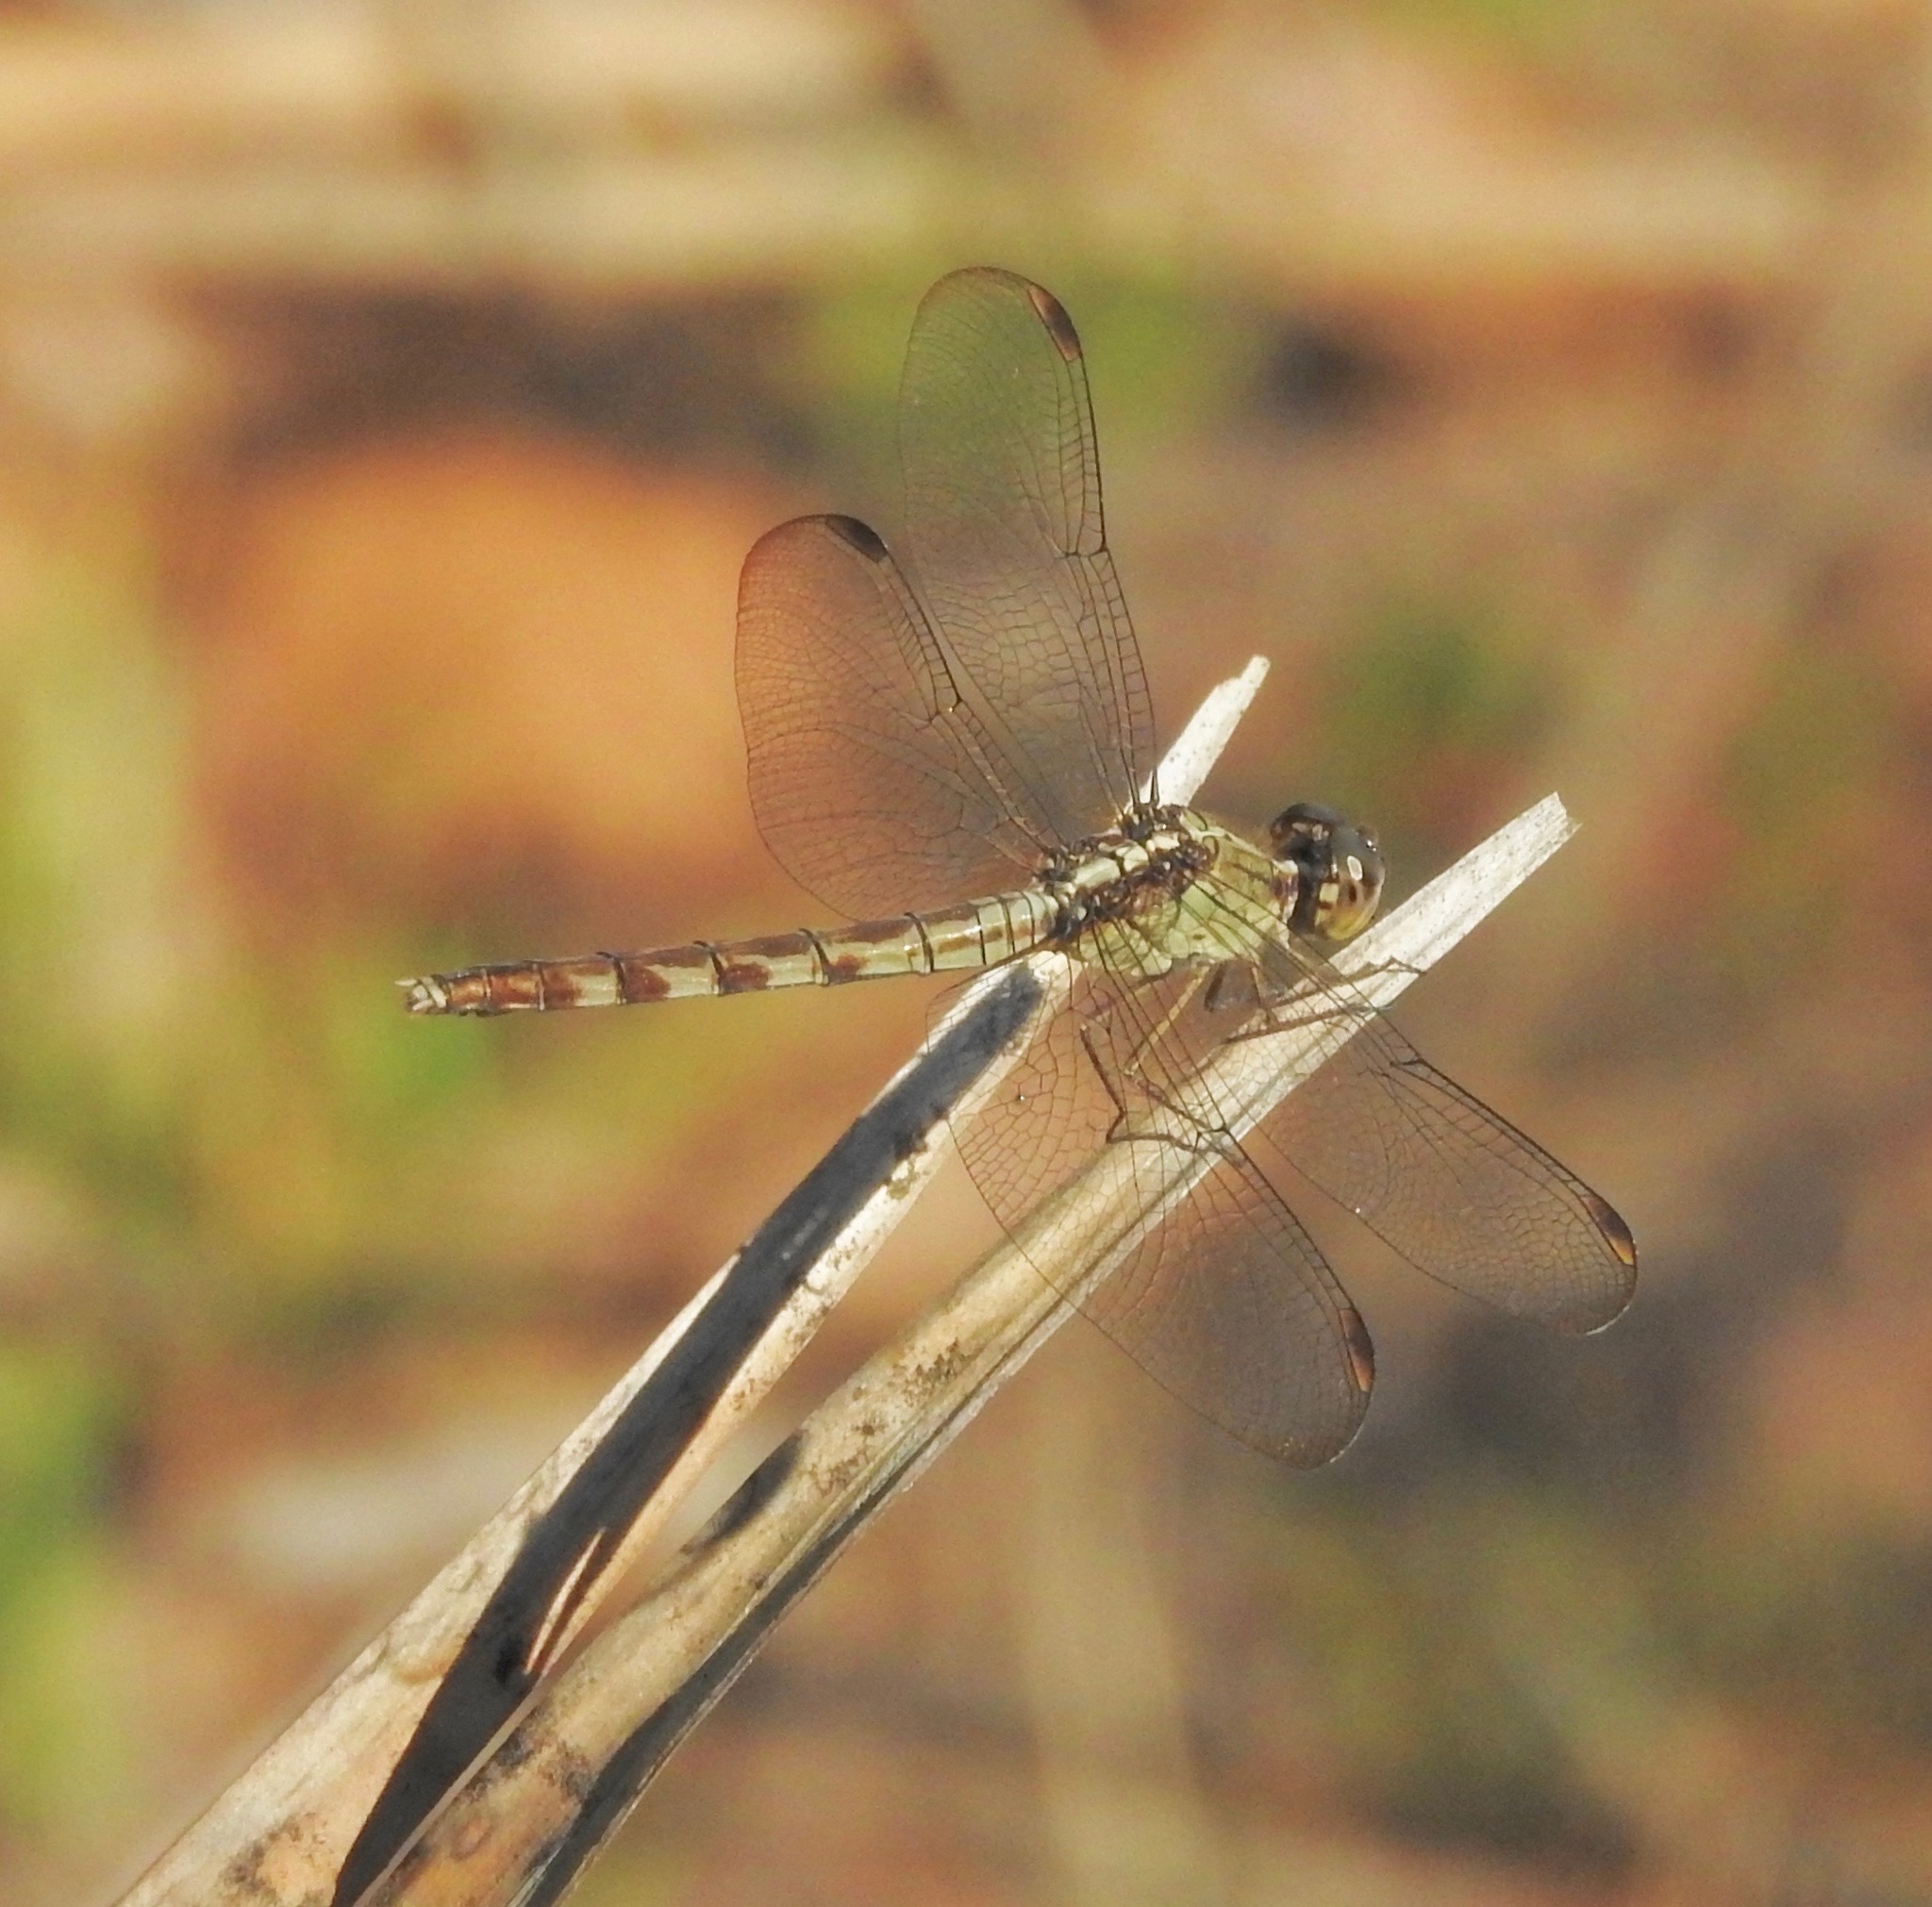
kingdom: Animalia
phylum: Arthropoda
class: Insecta
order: Odonata
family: Libellulidae
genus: Erythrodiplax
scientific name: Erythrodiplax umbrata
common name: Band-winged dragonlet
